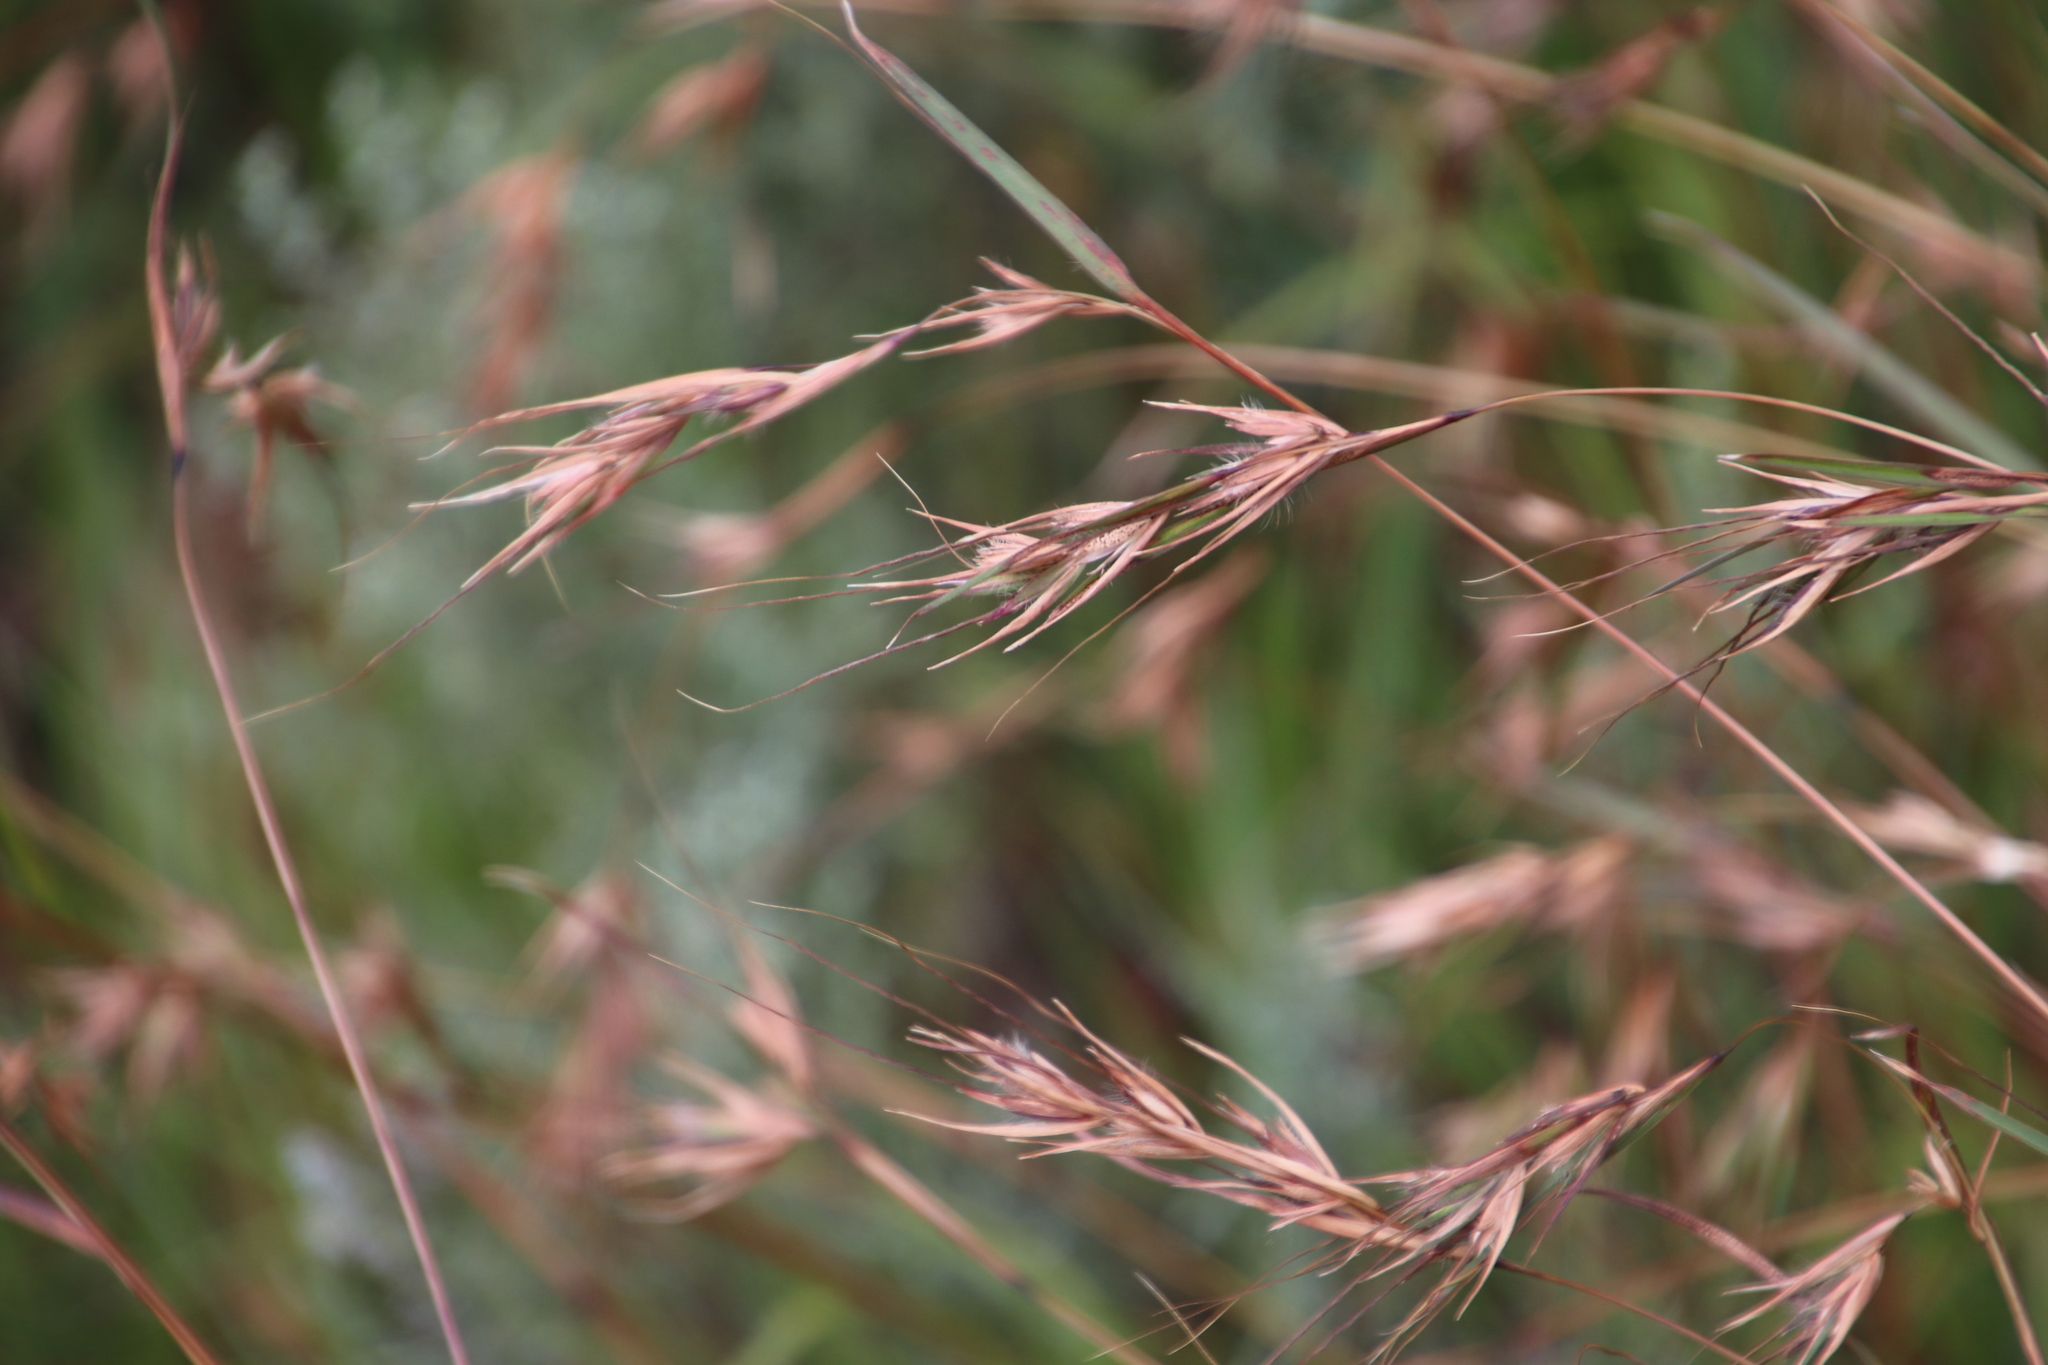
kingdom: Plantae
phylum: Tracheophyta
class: Liliopsida
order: Poales
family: Poaceae
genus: Themeda
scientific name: Themeda triandra
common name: Kangaroo grass
